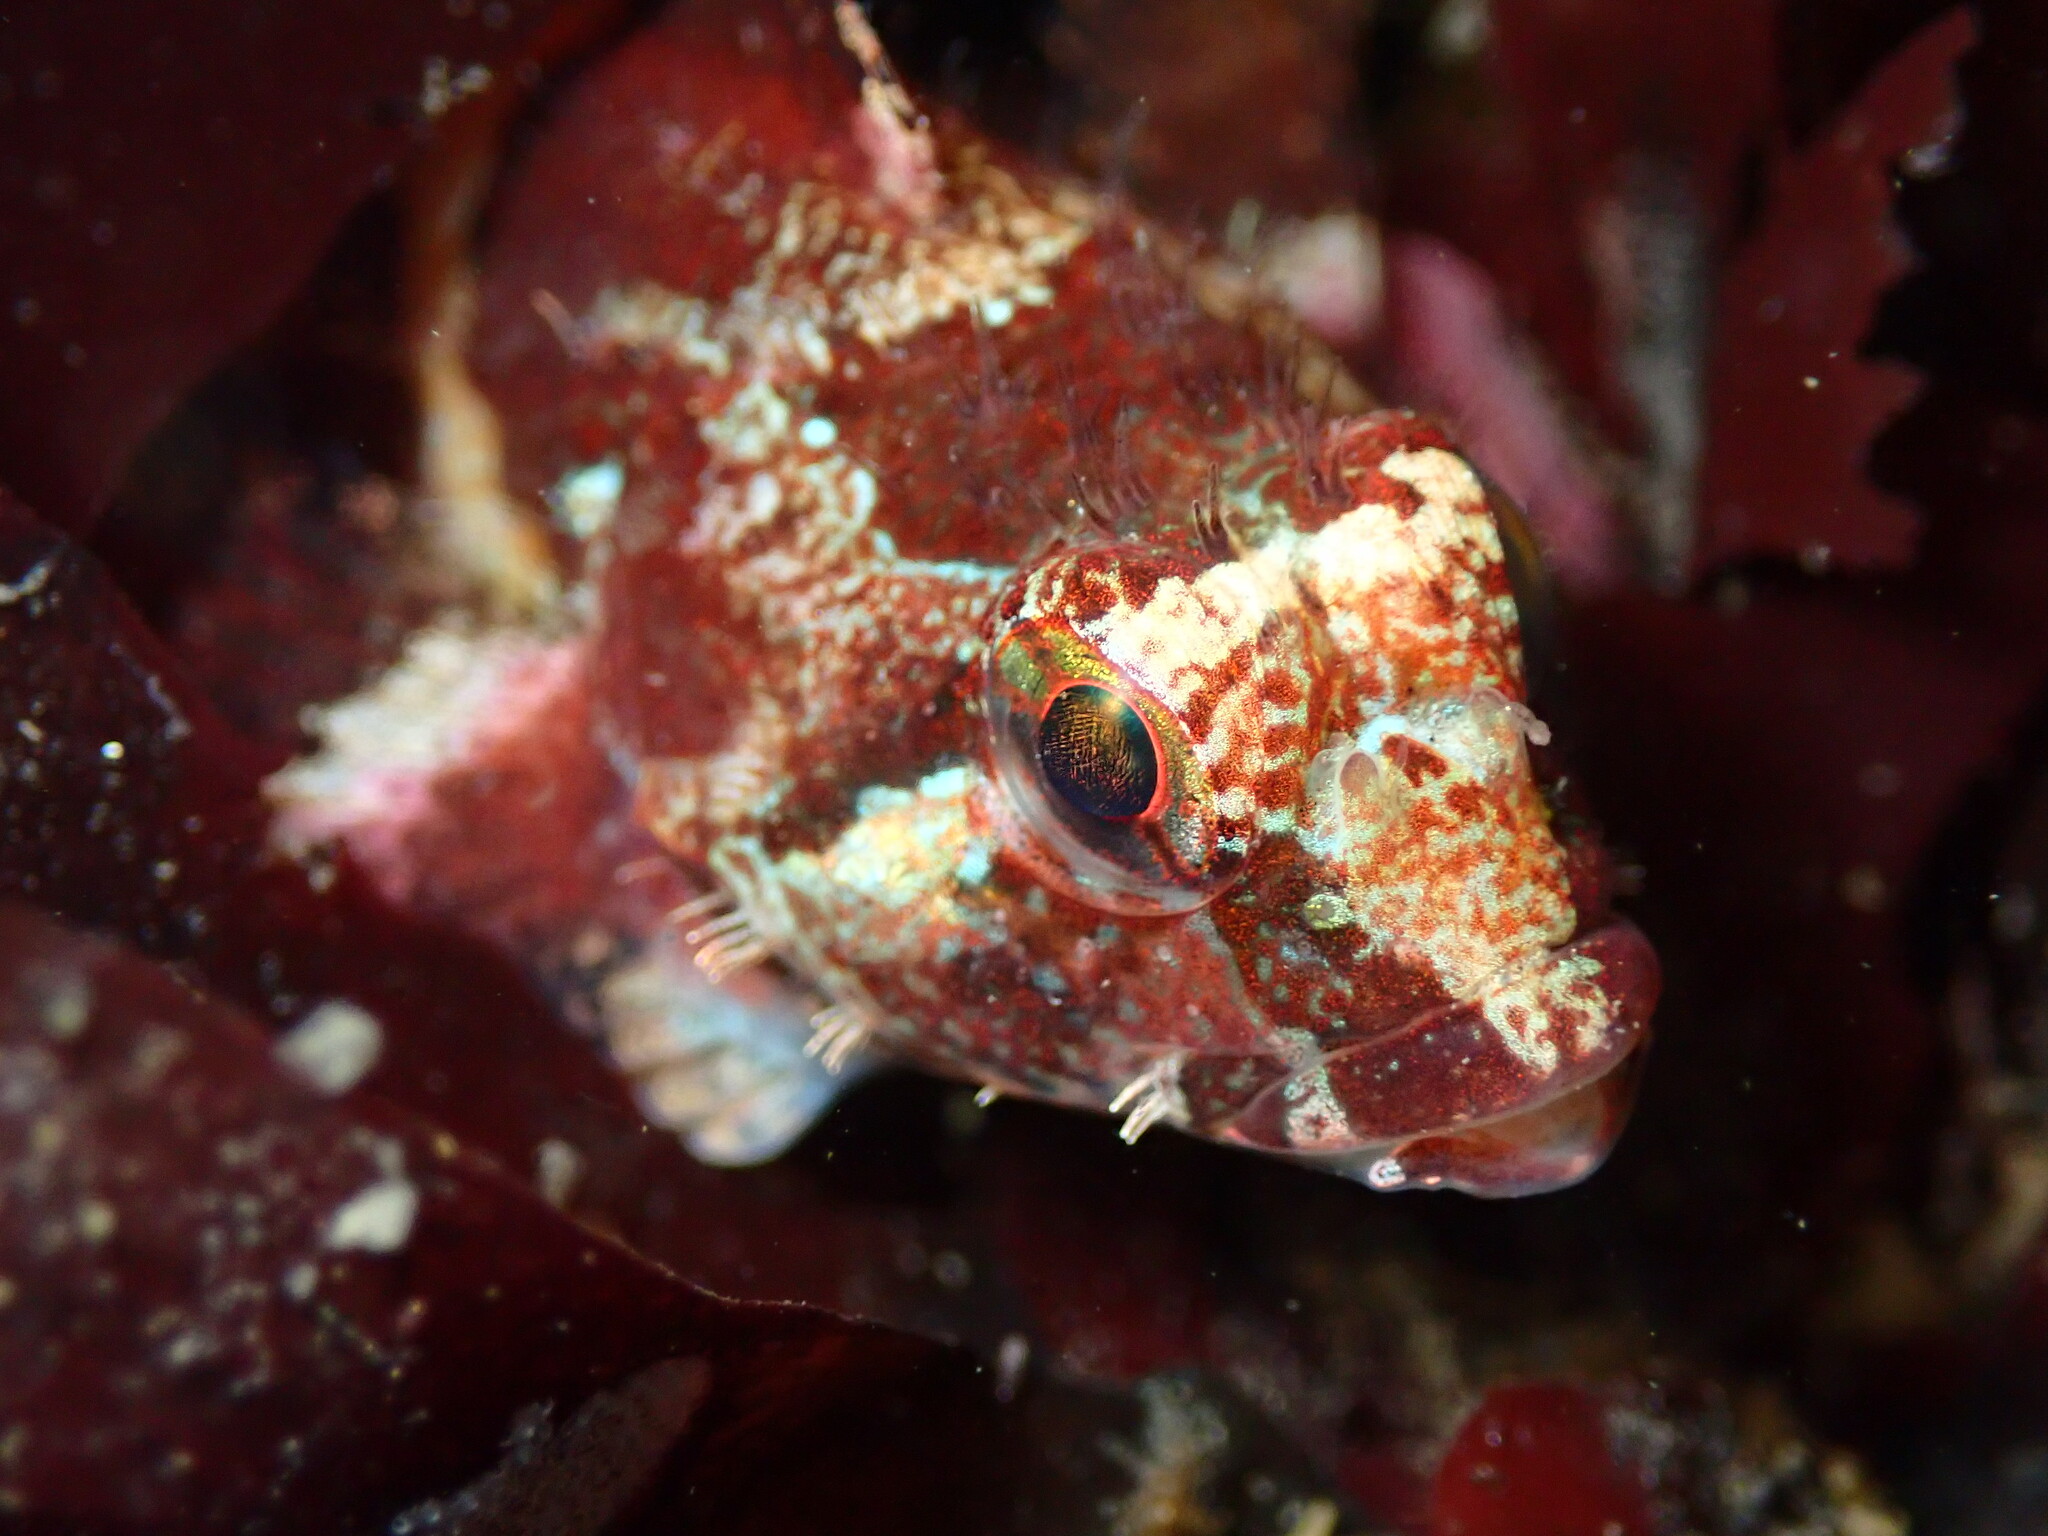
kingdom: Animalia
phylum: Chordata
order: Scorpaeniformes
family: Cottidae
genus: Oligocottus
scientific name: Oligocottus rubellio
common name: Rosy sculpin
